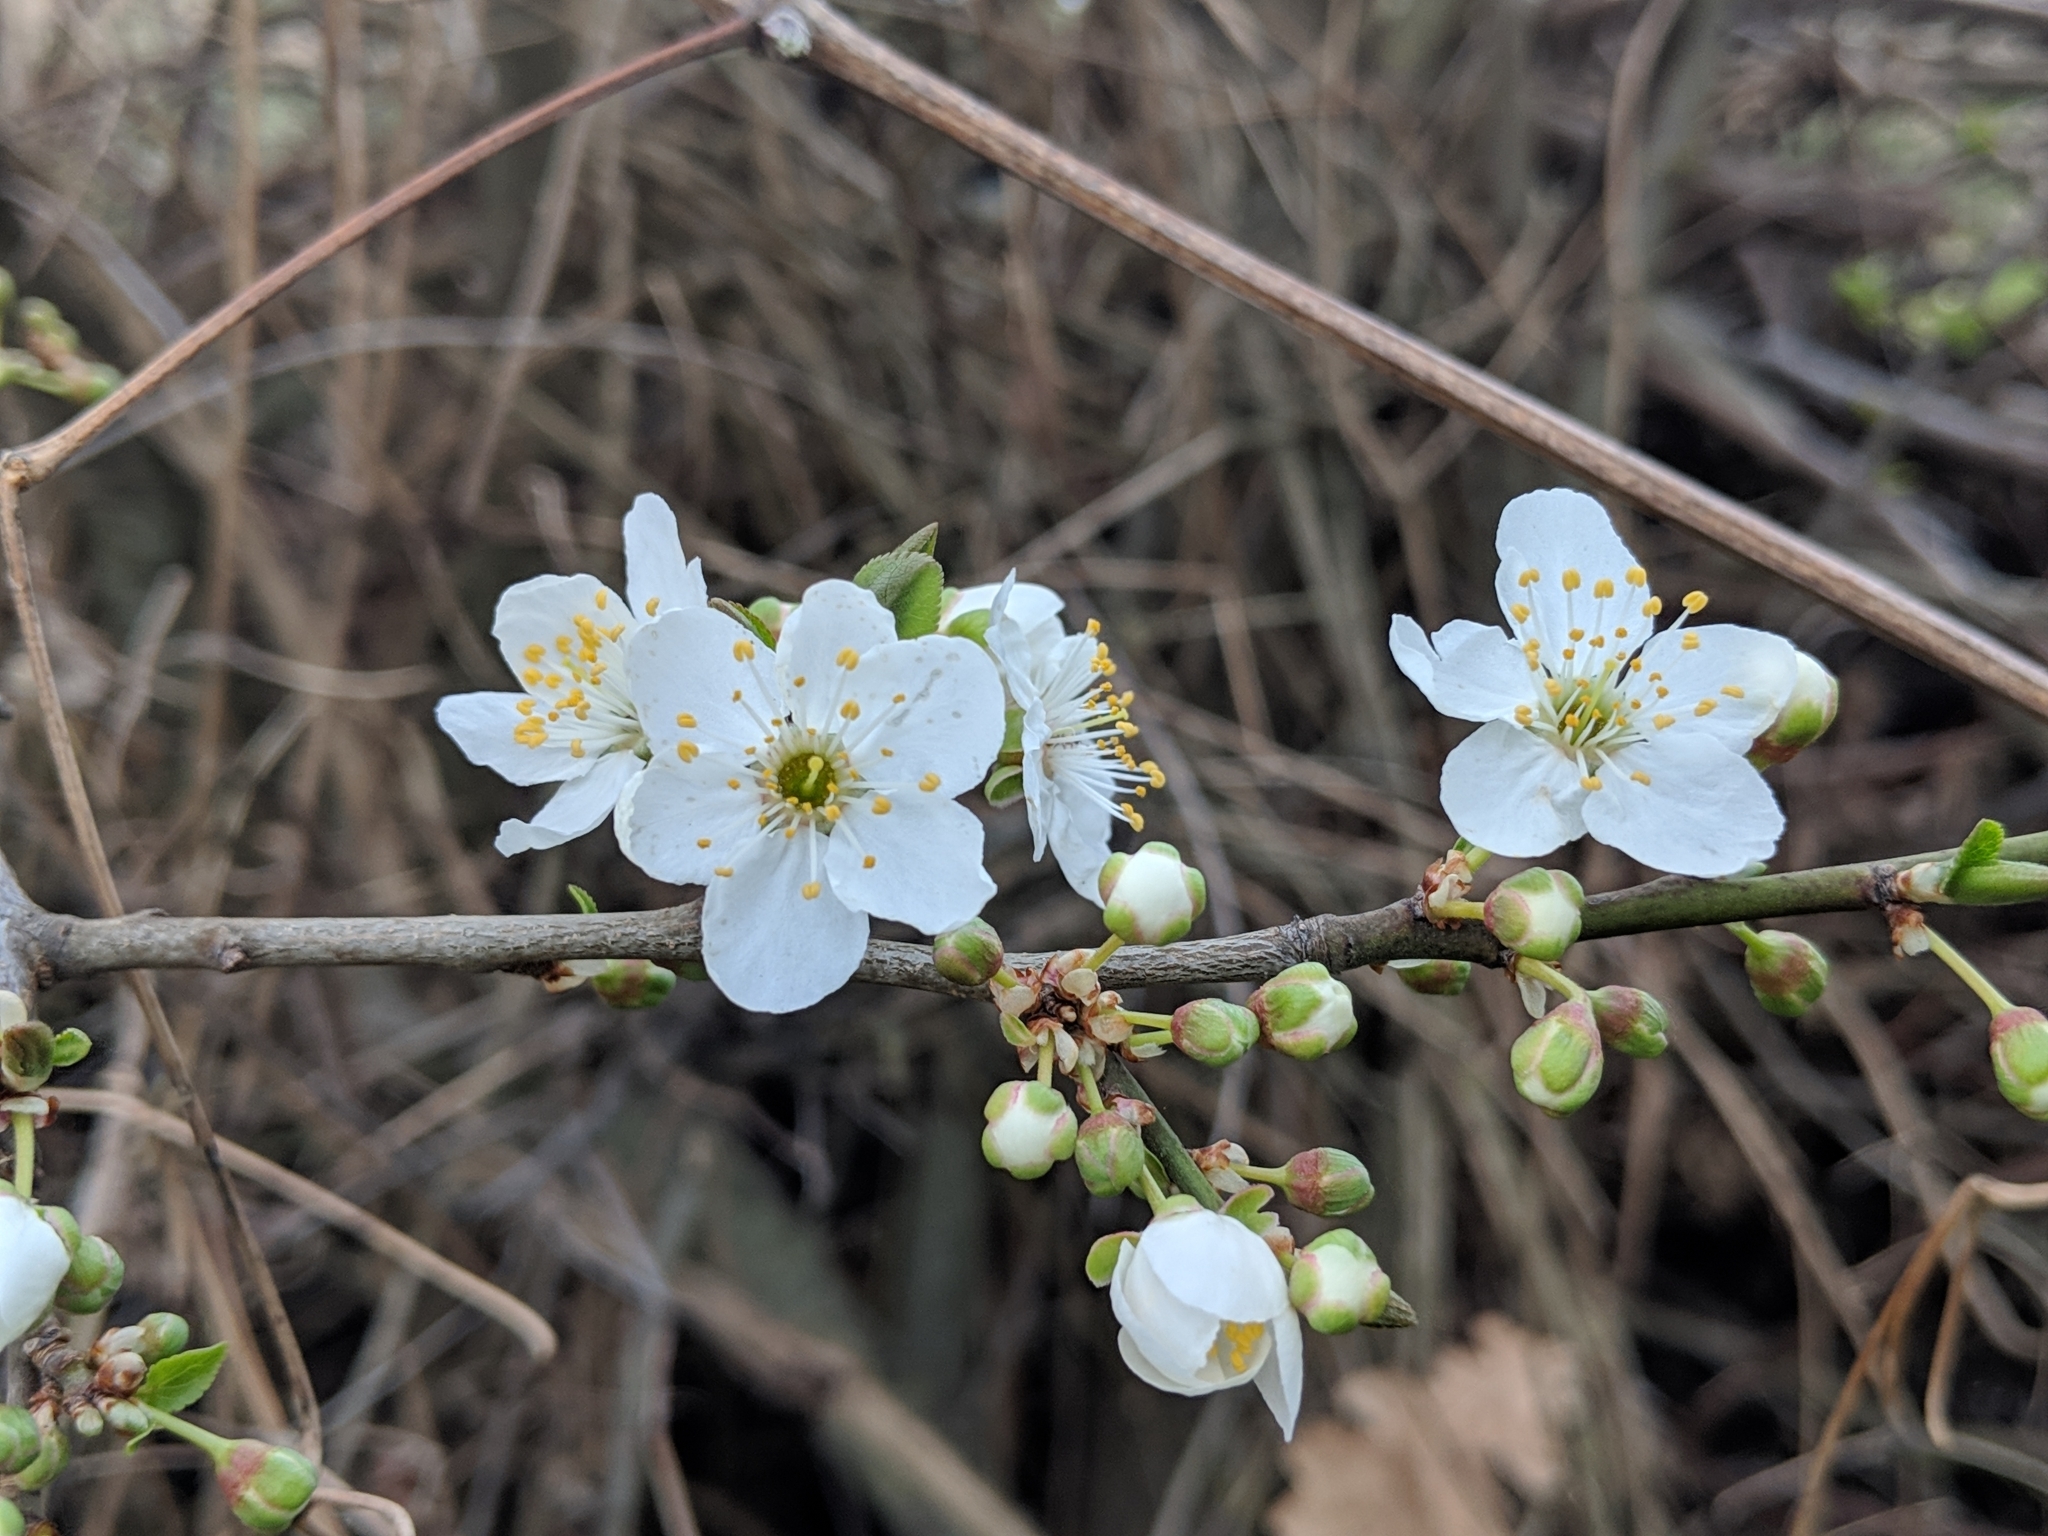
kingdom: Plantae
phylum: Tracheophyta
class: Magnoliopsida
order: Rosales
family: Rosaceae
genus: Prunus
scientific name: Prunus cerasifera
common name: Cherry plum
